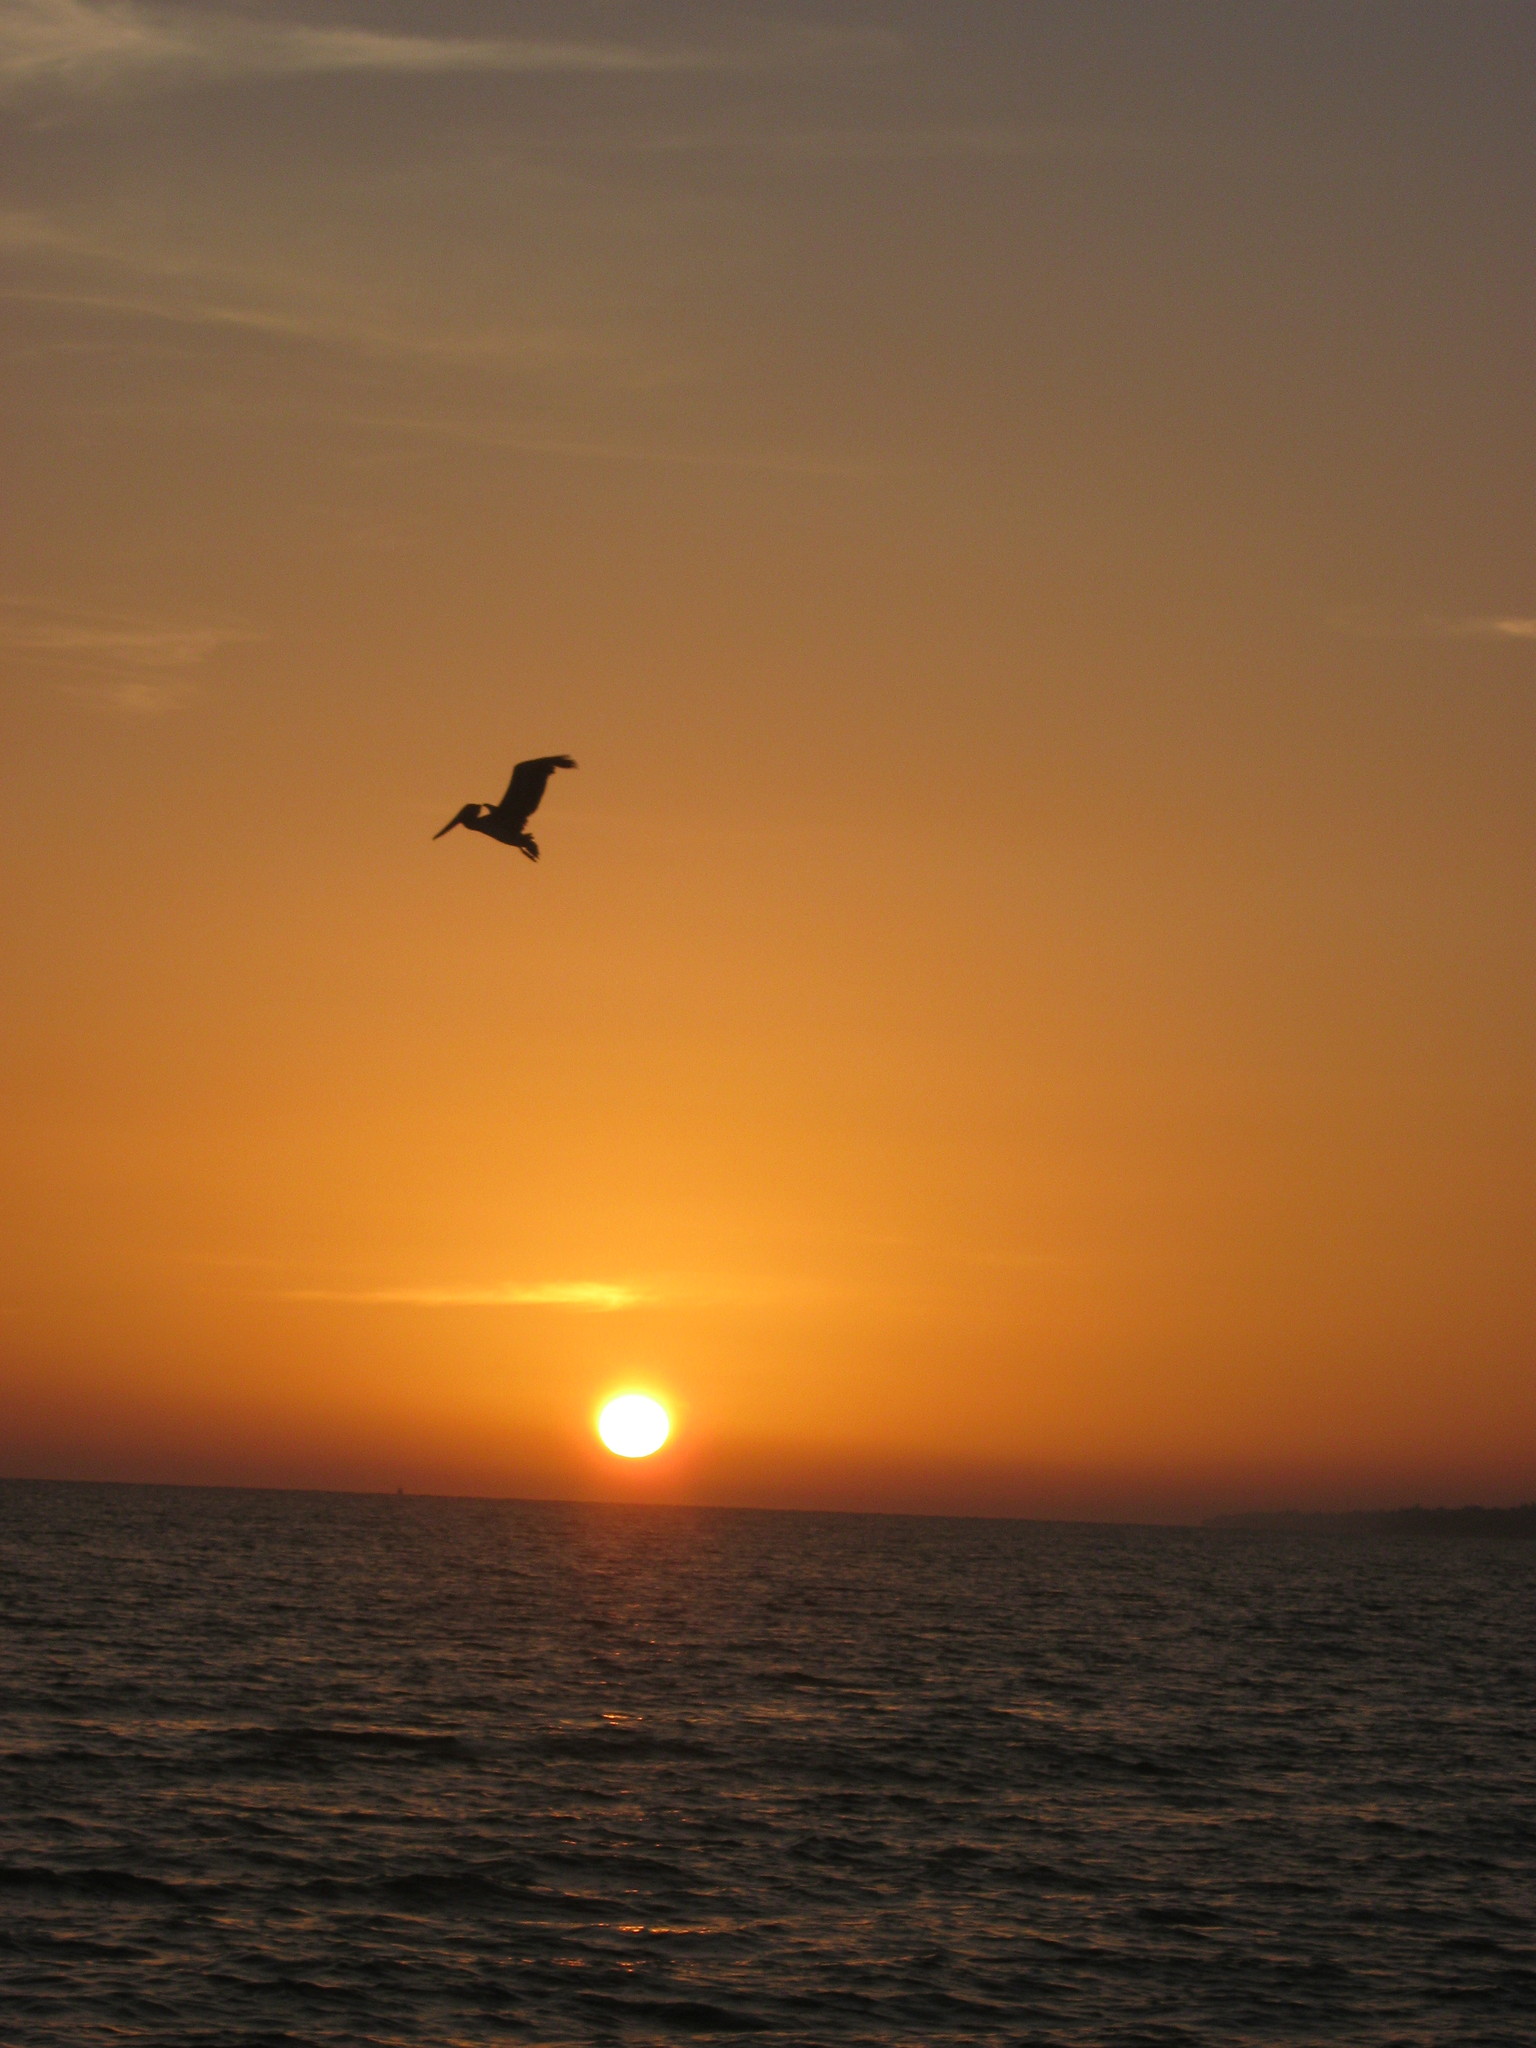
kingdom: Animalia
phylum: Chordata
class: Aves
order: Pelecaniformes
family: Pelecanidae
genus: Pelecanus
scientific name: Pelecanus occidentalis
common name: Brown pelican
